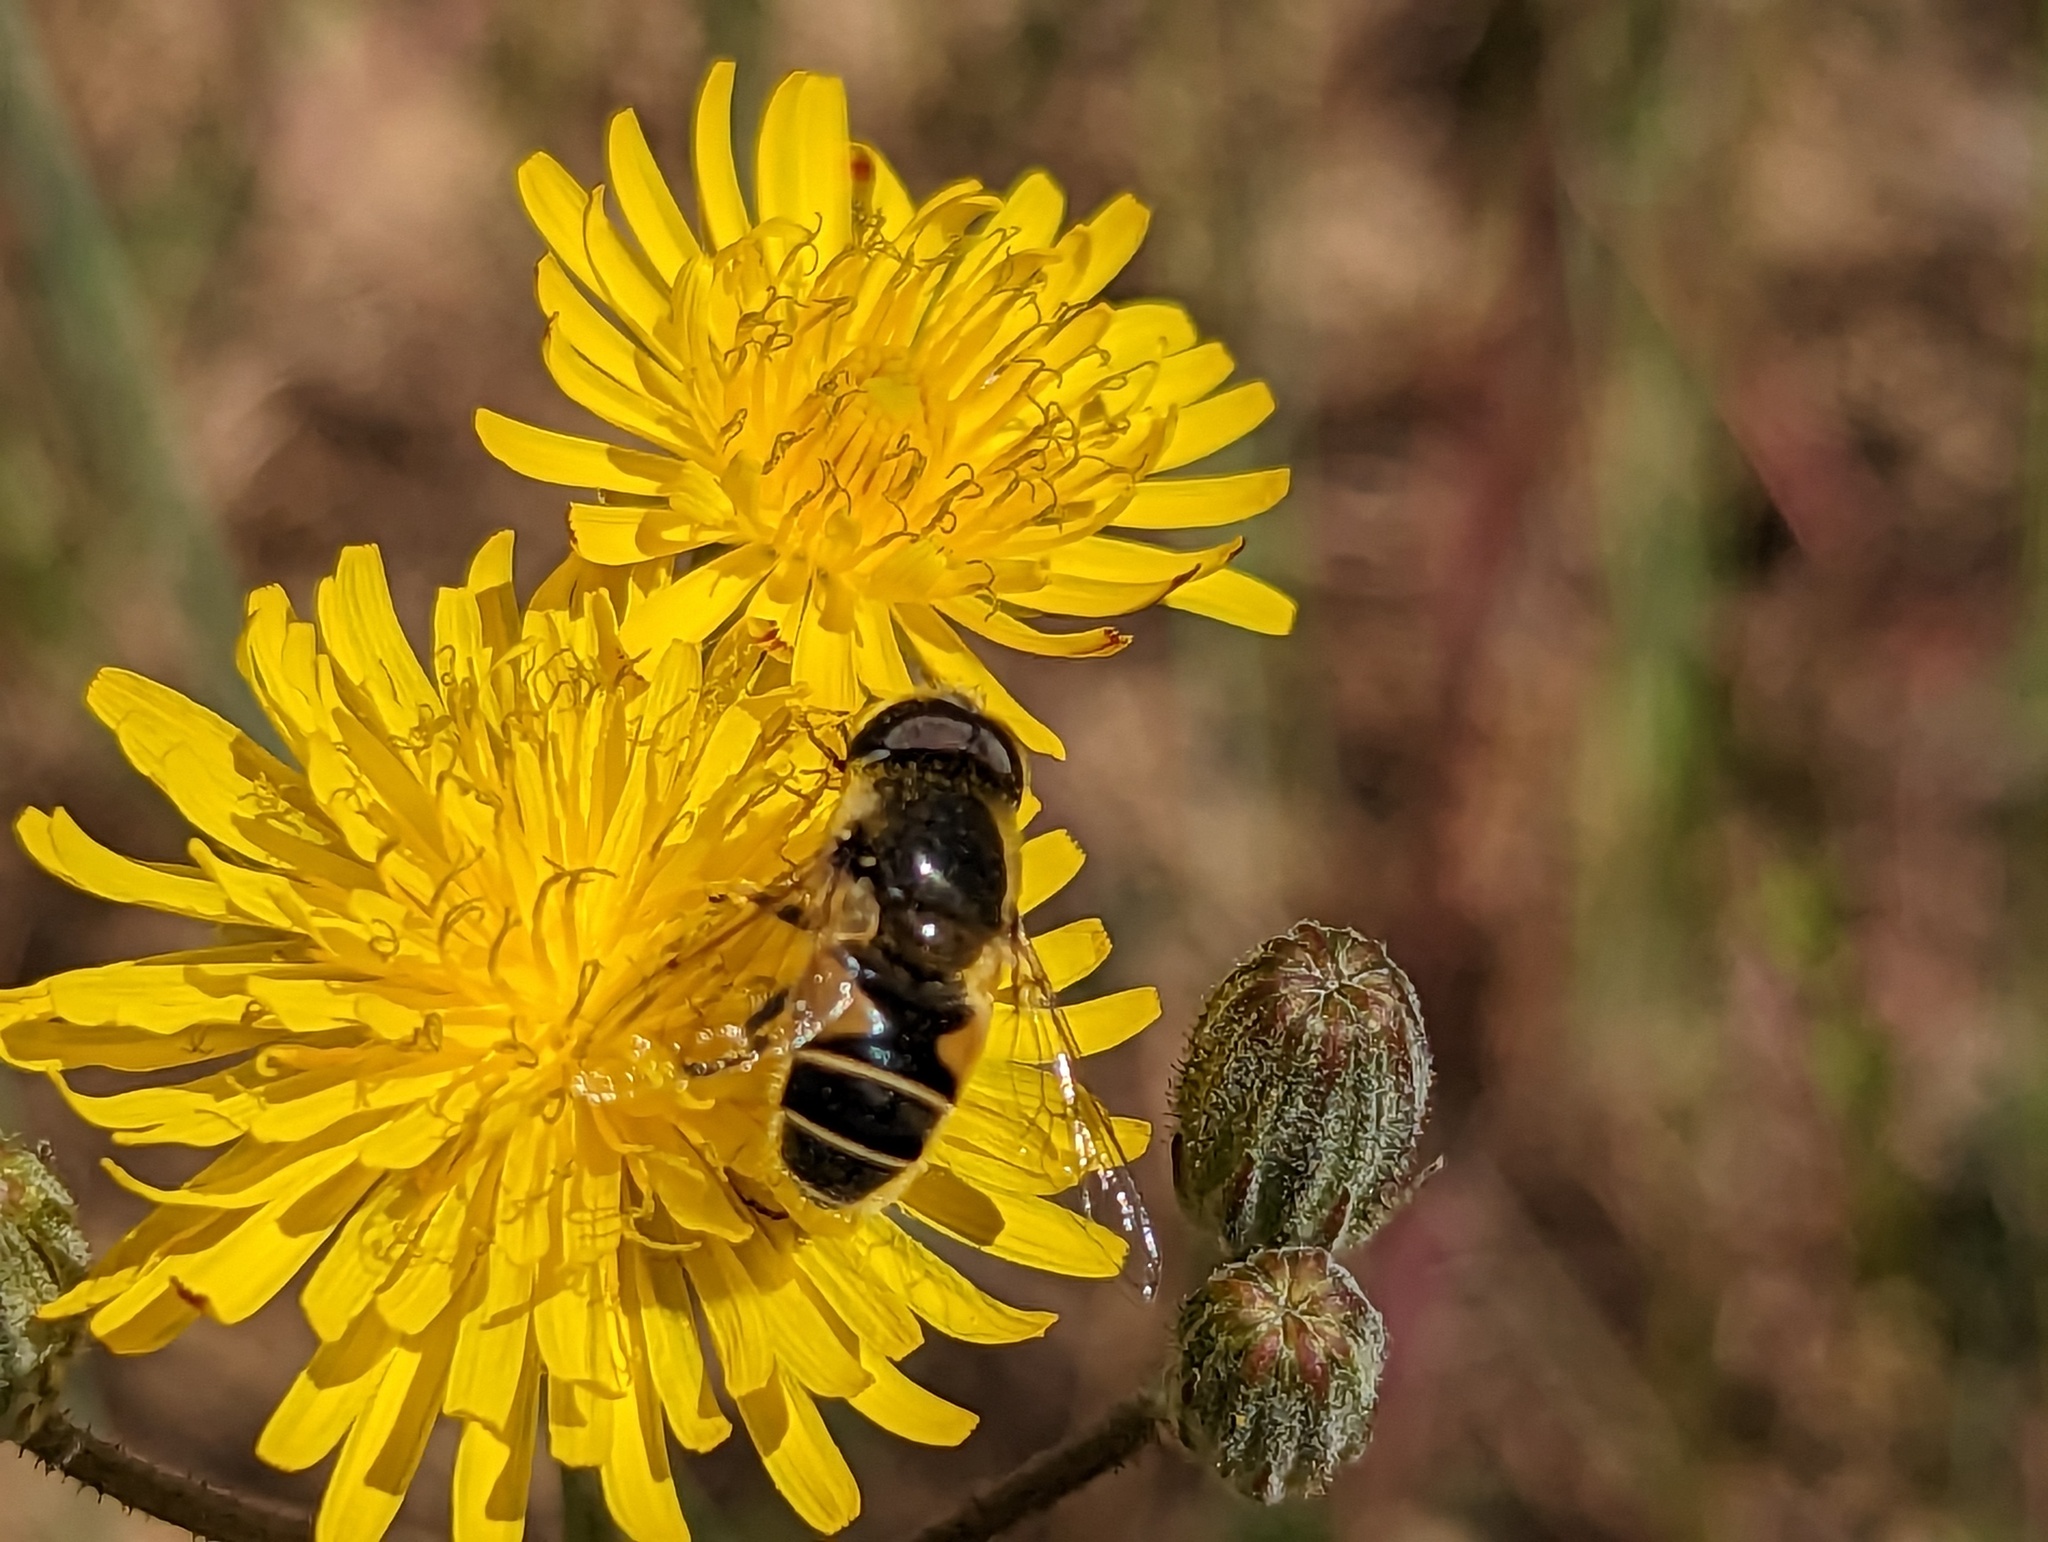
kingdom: Animalia
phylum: Arthropoda
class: Insecta
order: Diptera
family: Syrphidae
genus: Eristalis
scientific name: Eristalis hirta
